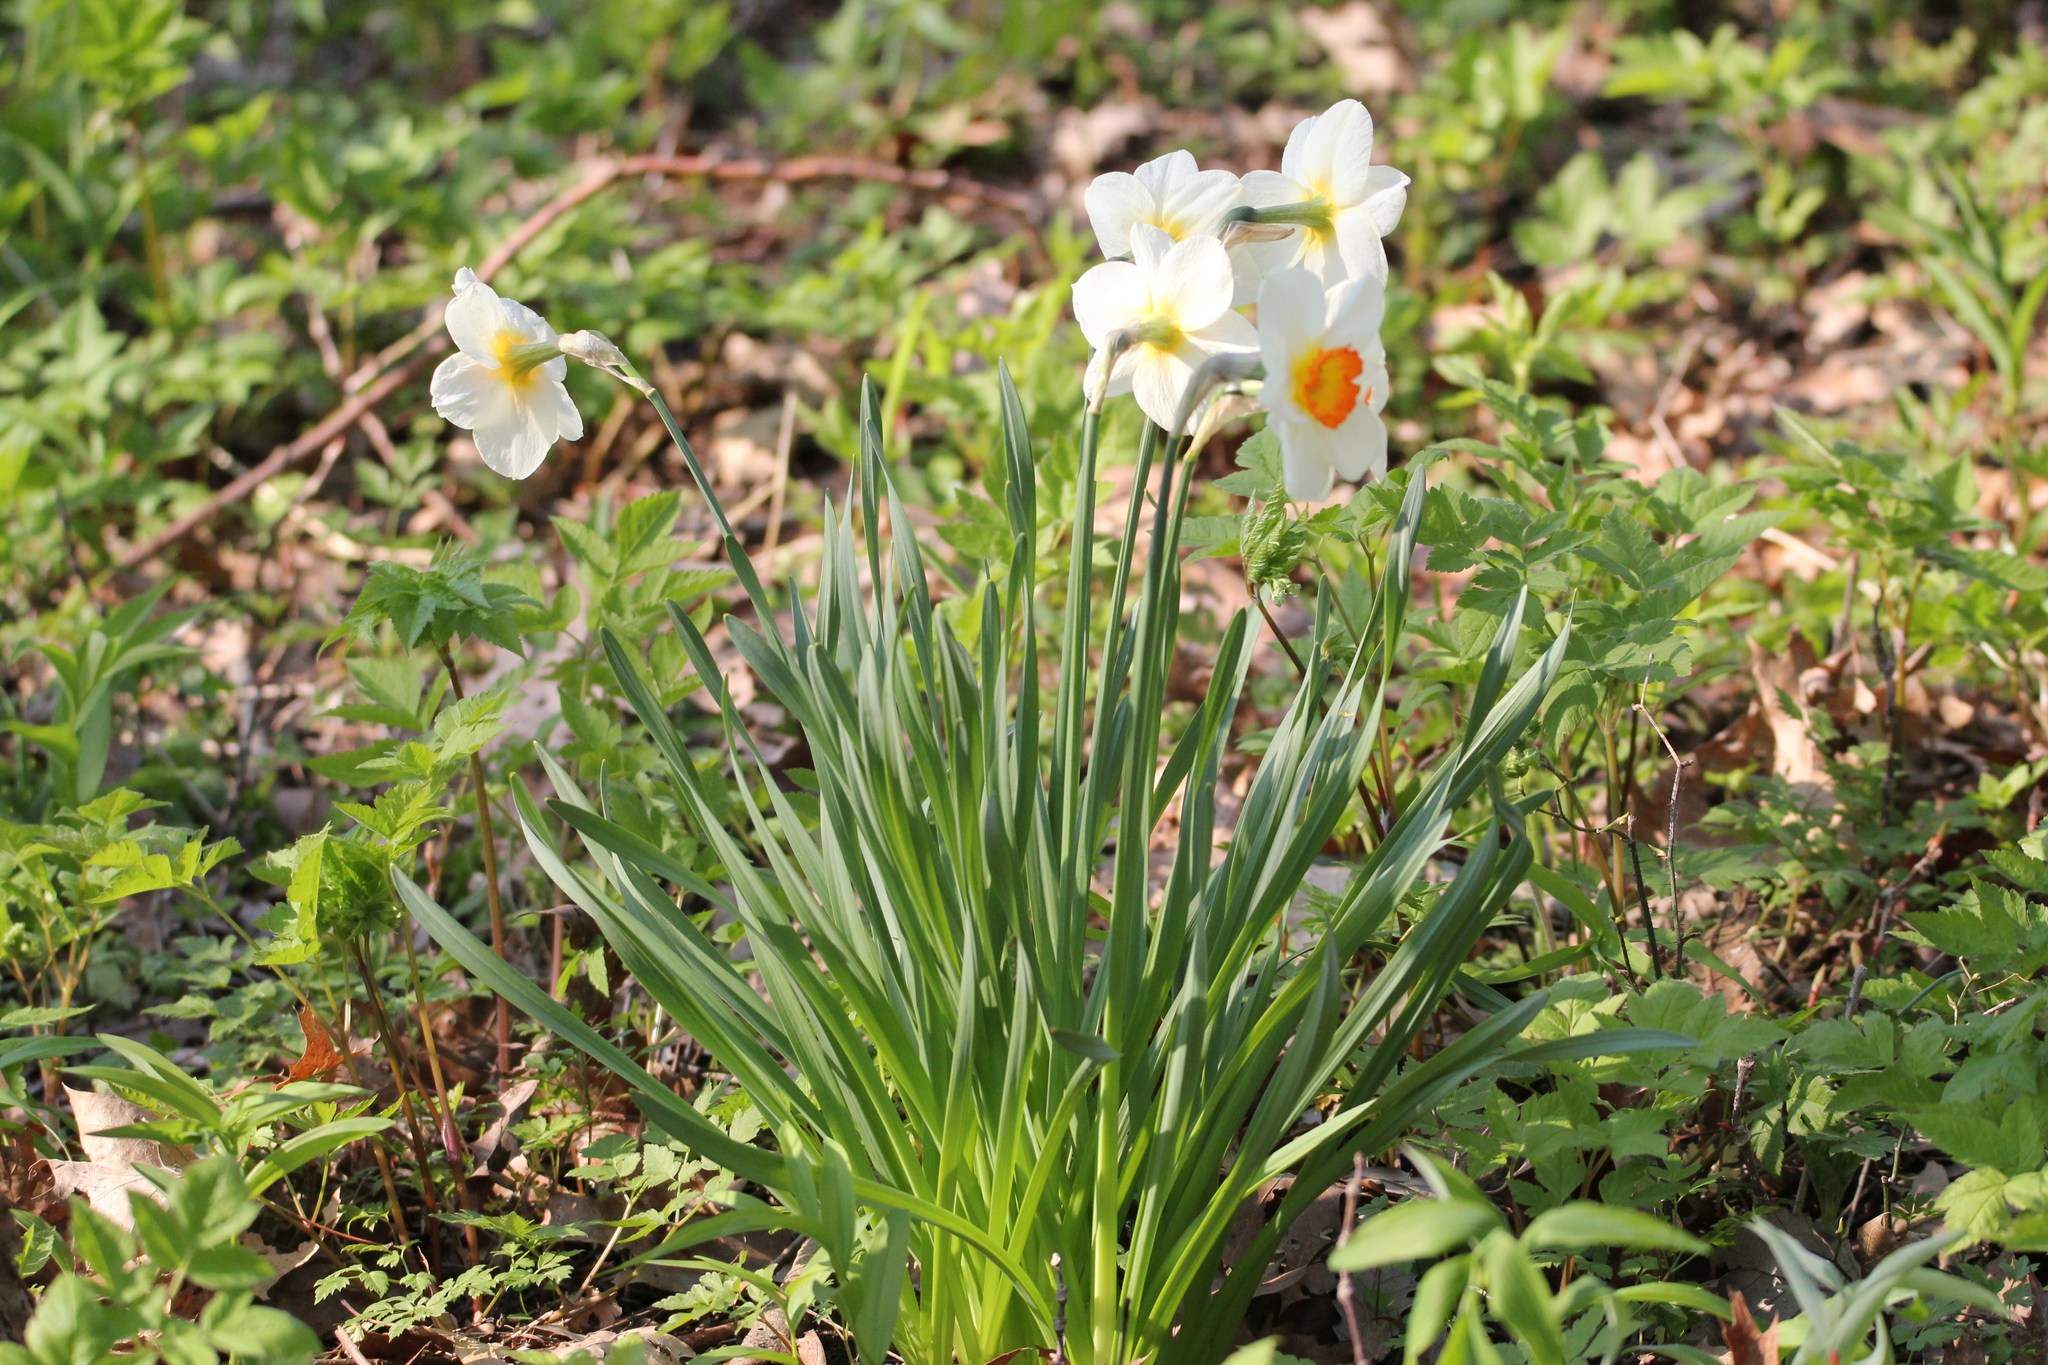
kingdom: Plantae
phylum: Tracheophyta
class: Liliopsida
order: Asparagales
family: Amaryllidaceae
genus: Narcissus
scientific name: Narcissus poeticus
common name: Pheasant's-eye daffodil
